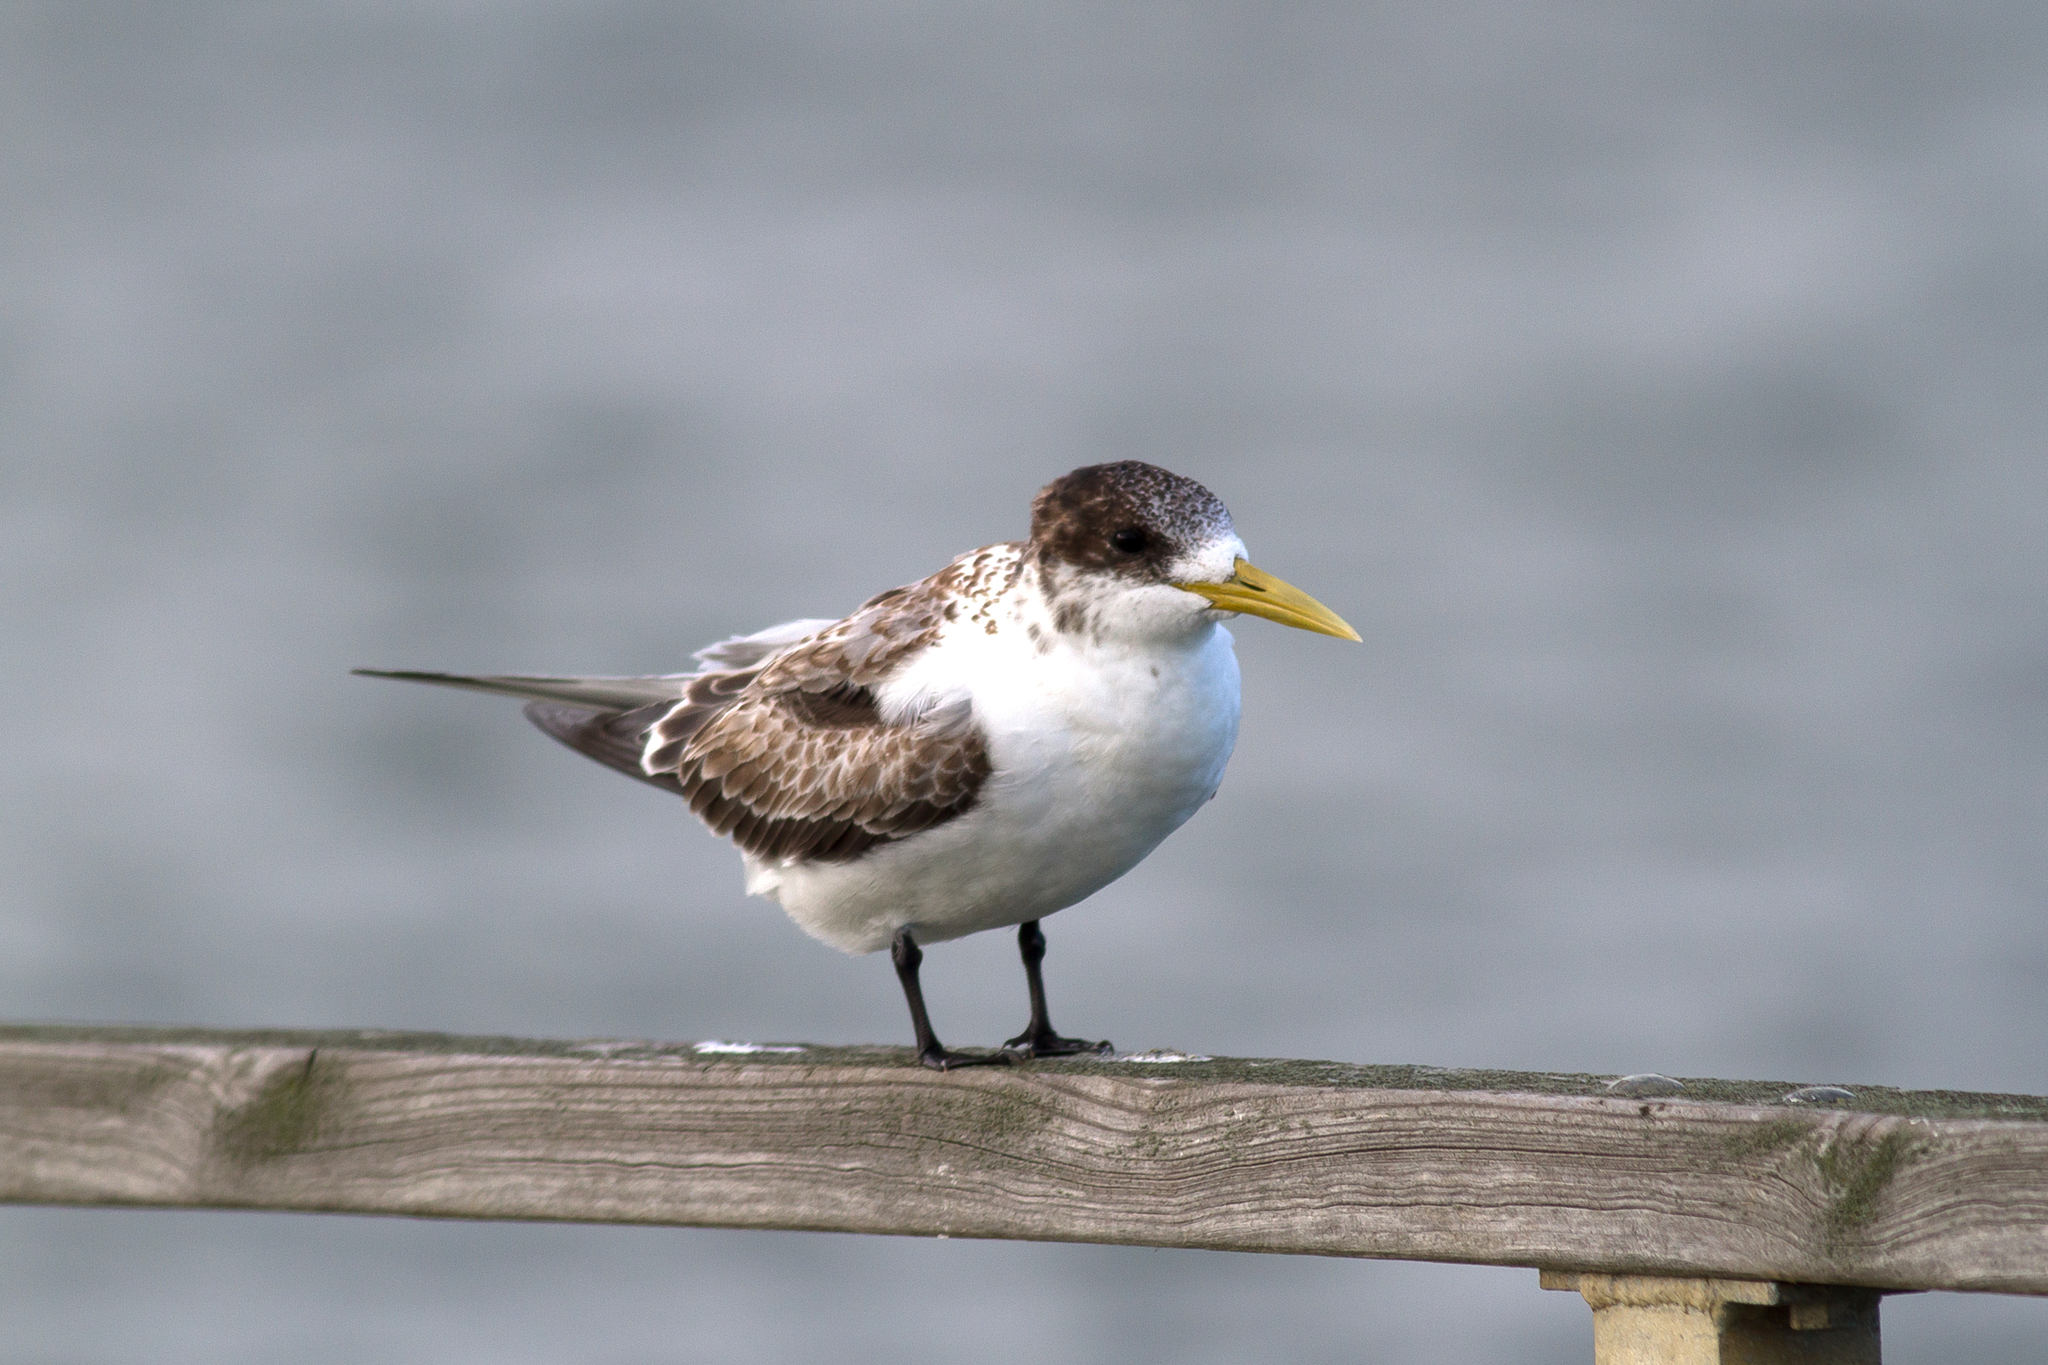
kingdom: Animalia
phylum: Chordata
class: Aves
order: Charadriiformes
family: Laridae
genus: Thalasseus
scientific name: Thalasseus bergii
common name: Greater crested tern
